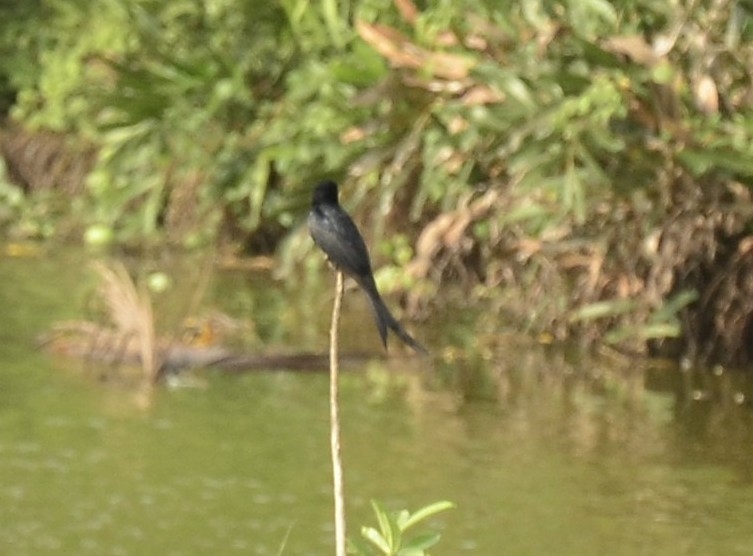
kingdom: Animalia
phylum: Chordata
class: Aves
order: Passeriformes
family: Dicruridae
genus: Dicrurus
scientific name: Dicrurus macrocercus
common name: Black drongo
